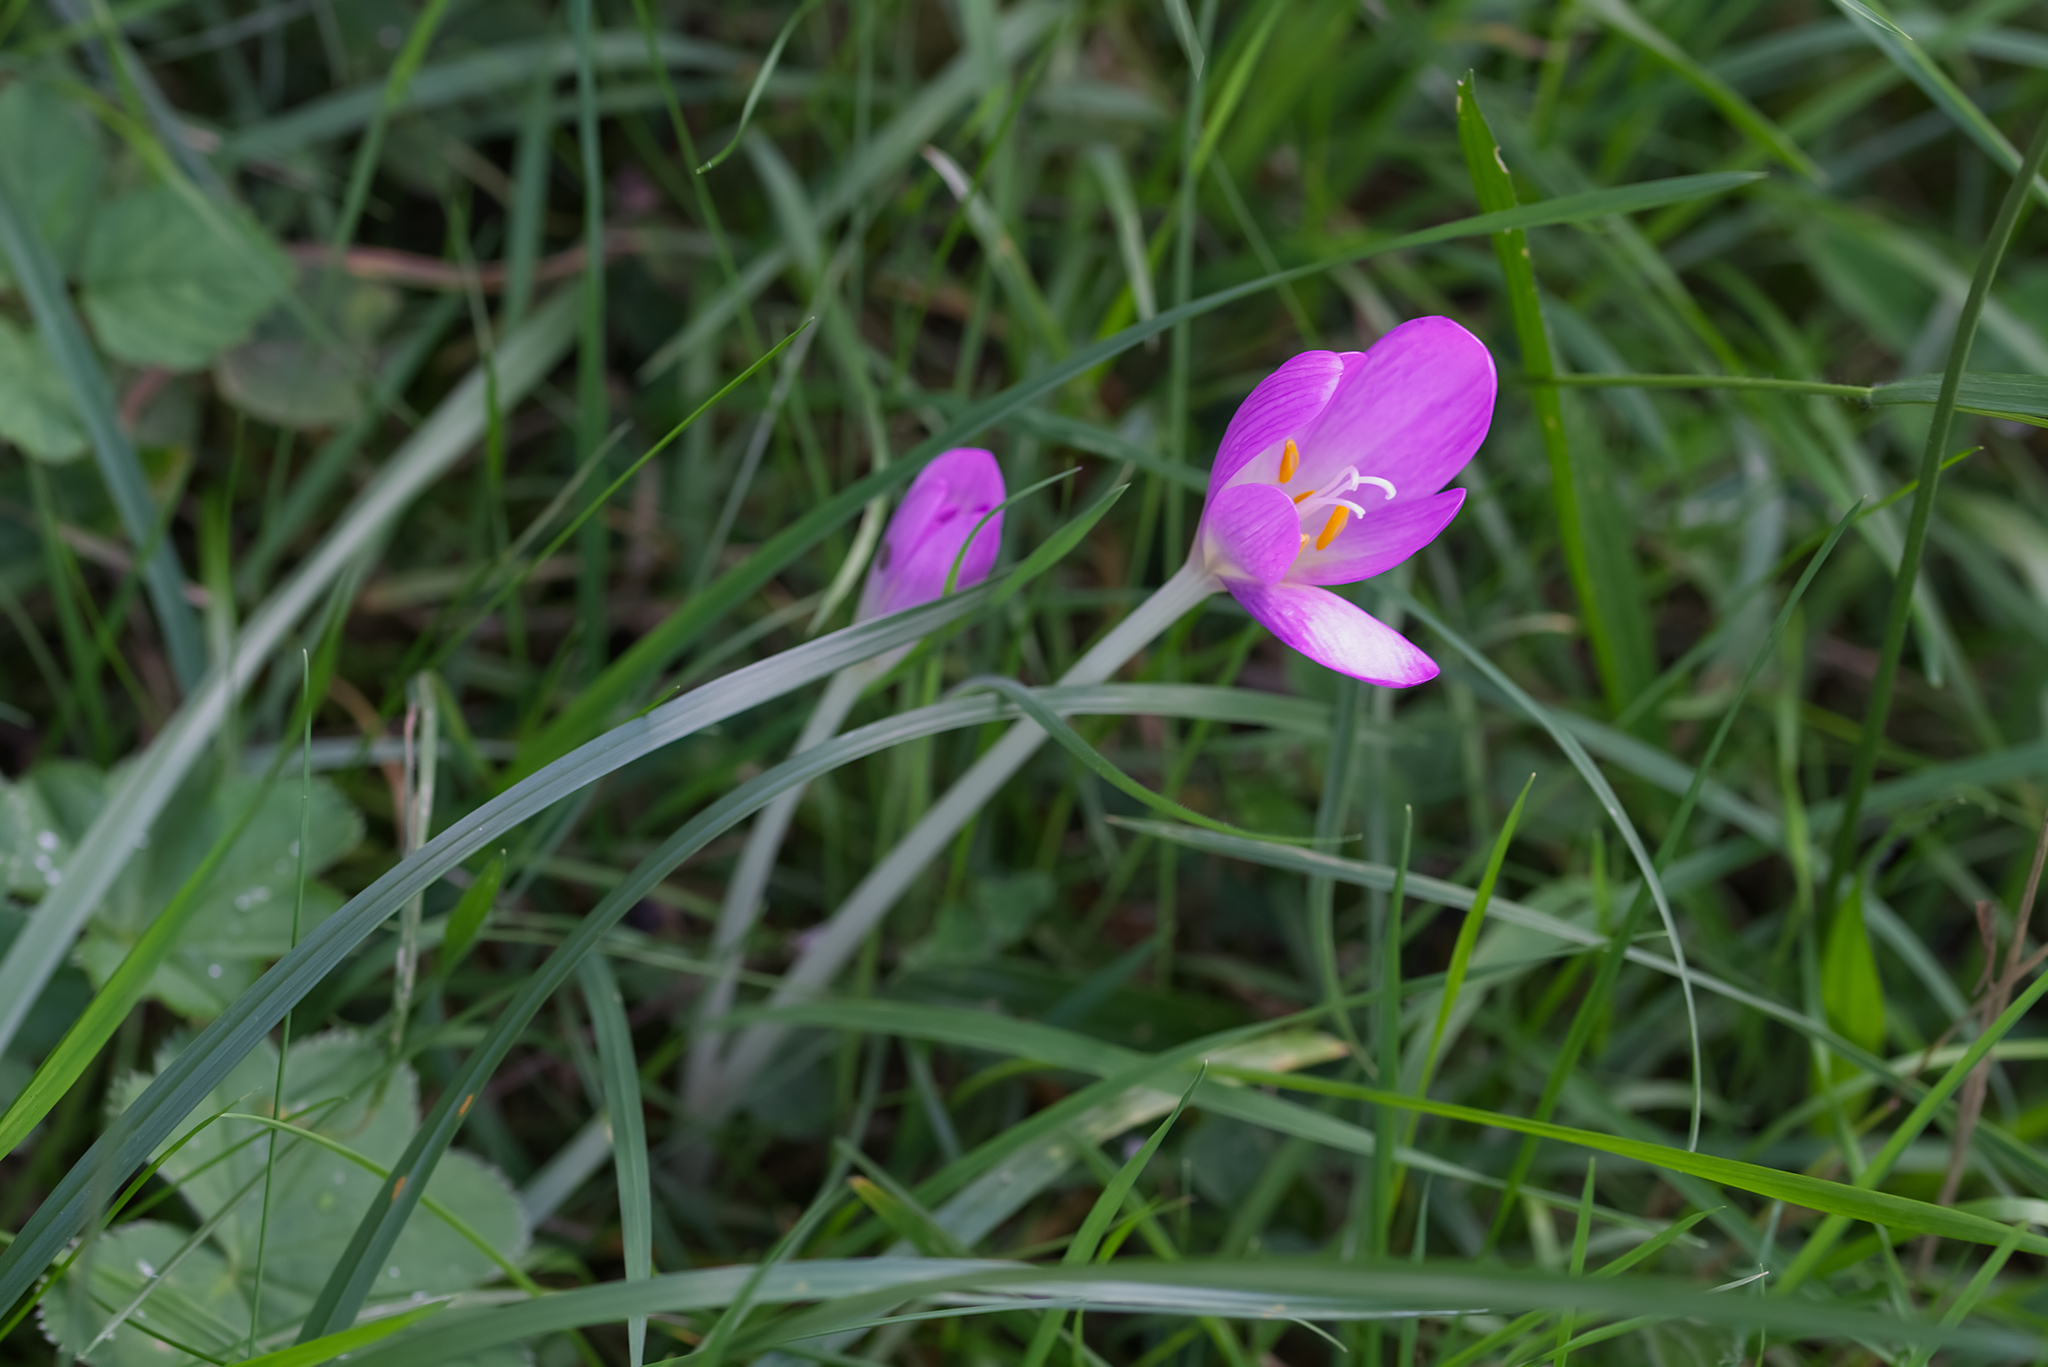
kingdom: Plantae
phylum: Tracheophyta
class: Liliopsida
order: Liliales
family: Colchicaceae
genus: Colchicum
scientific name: Colchicum autumnale
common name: Autumn crocus
